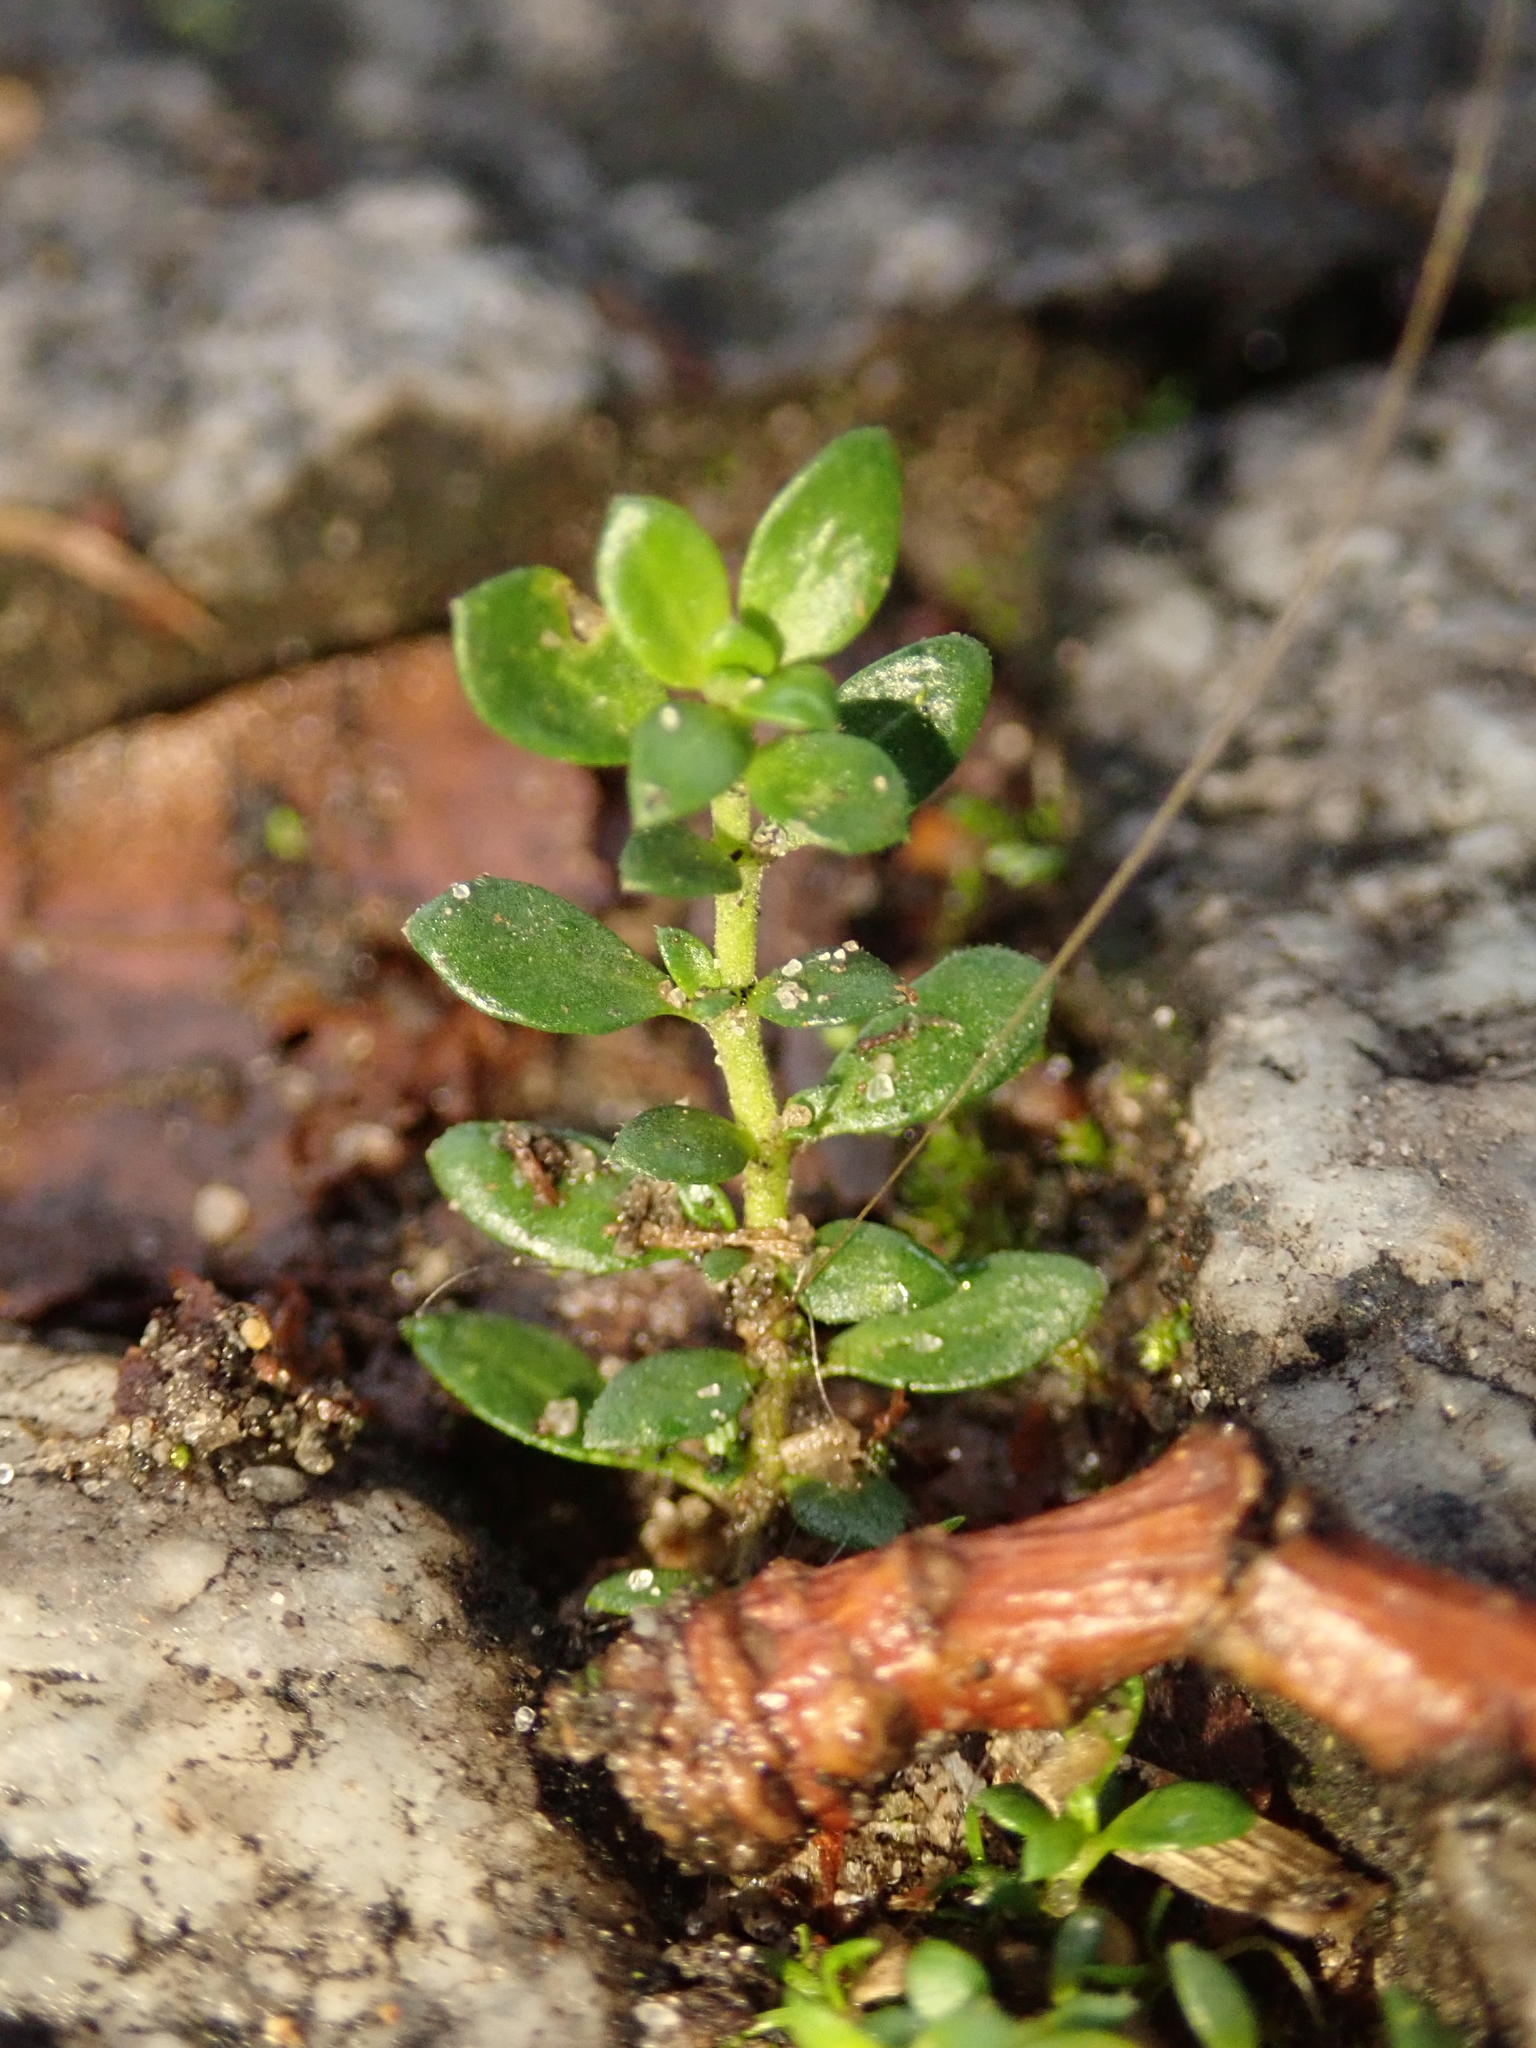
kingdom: Plantae
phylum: Tracheophyta
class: Magnoliopsida
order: Caryophyllales
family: Caryophyllaceae
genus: Herniaria
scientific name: Herniaria glabra
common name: Smooth rupturewort
